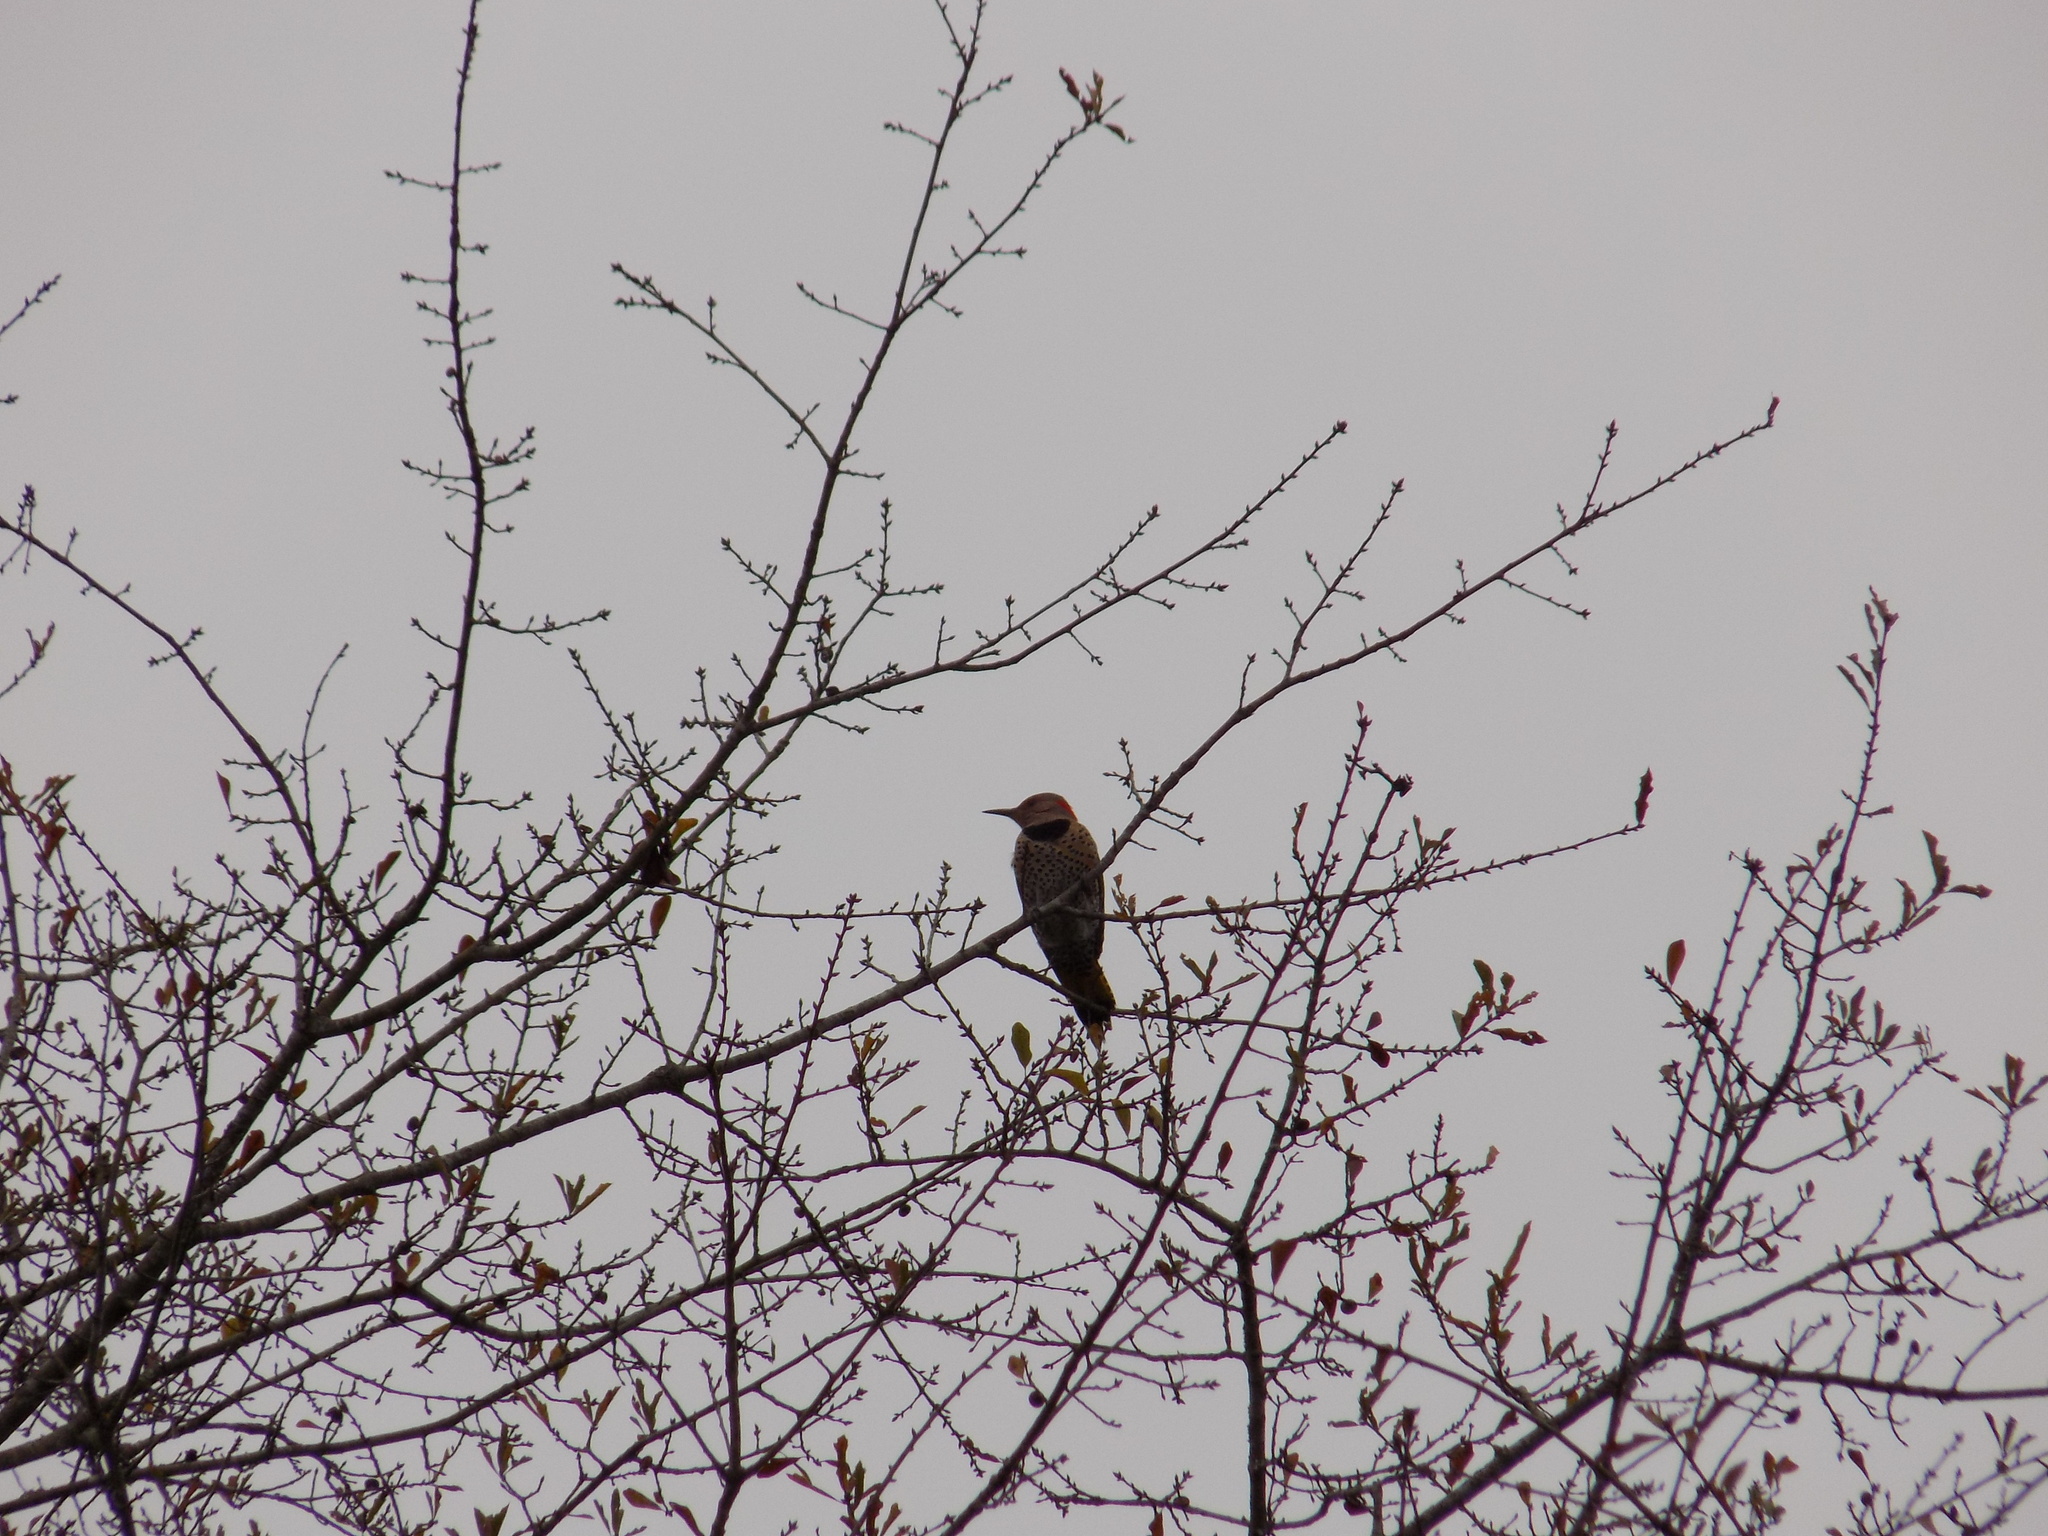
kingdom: Animalia
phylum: Chordata
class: Aves
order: Piciformes
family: Picidae
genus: Colaptes
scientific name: Colaptes auratus
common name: Northern flicker
